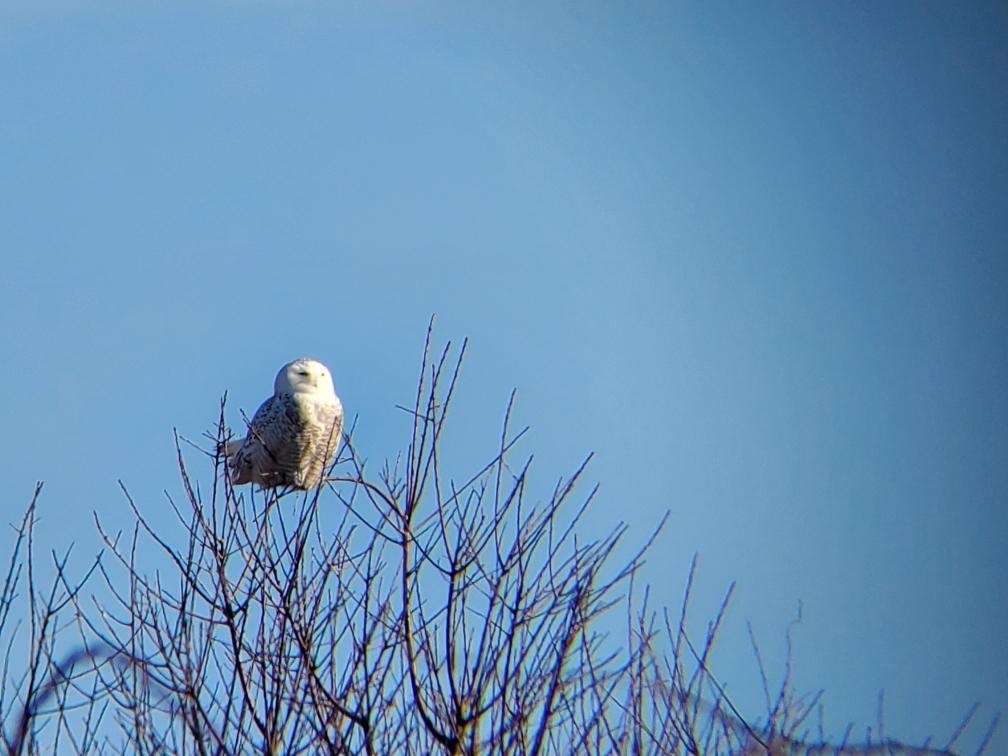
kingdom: Animalia
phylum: Chordata
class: Aves
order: Strigiformes
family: Strigidae
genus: Bubo
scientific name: Bubo scandiacus
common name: Snowy owl
